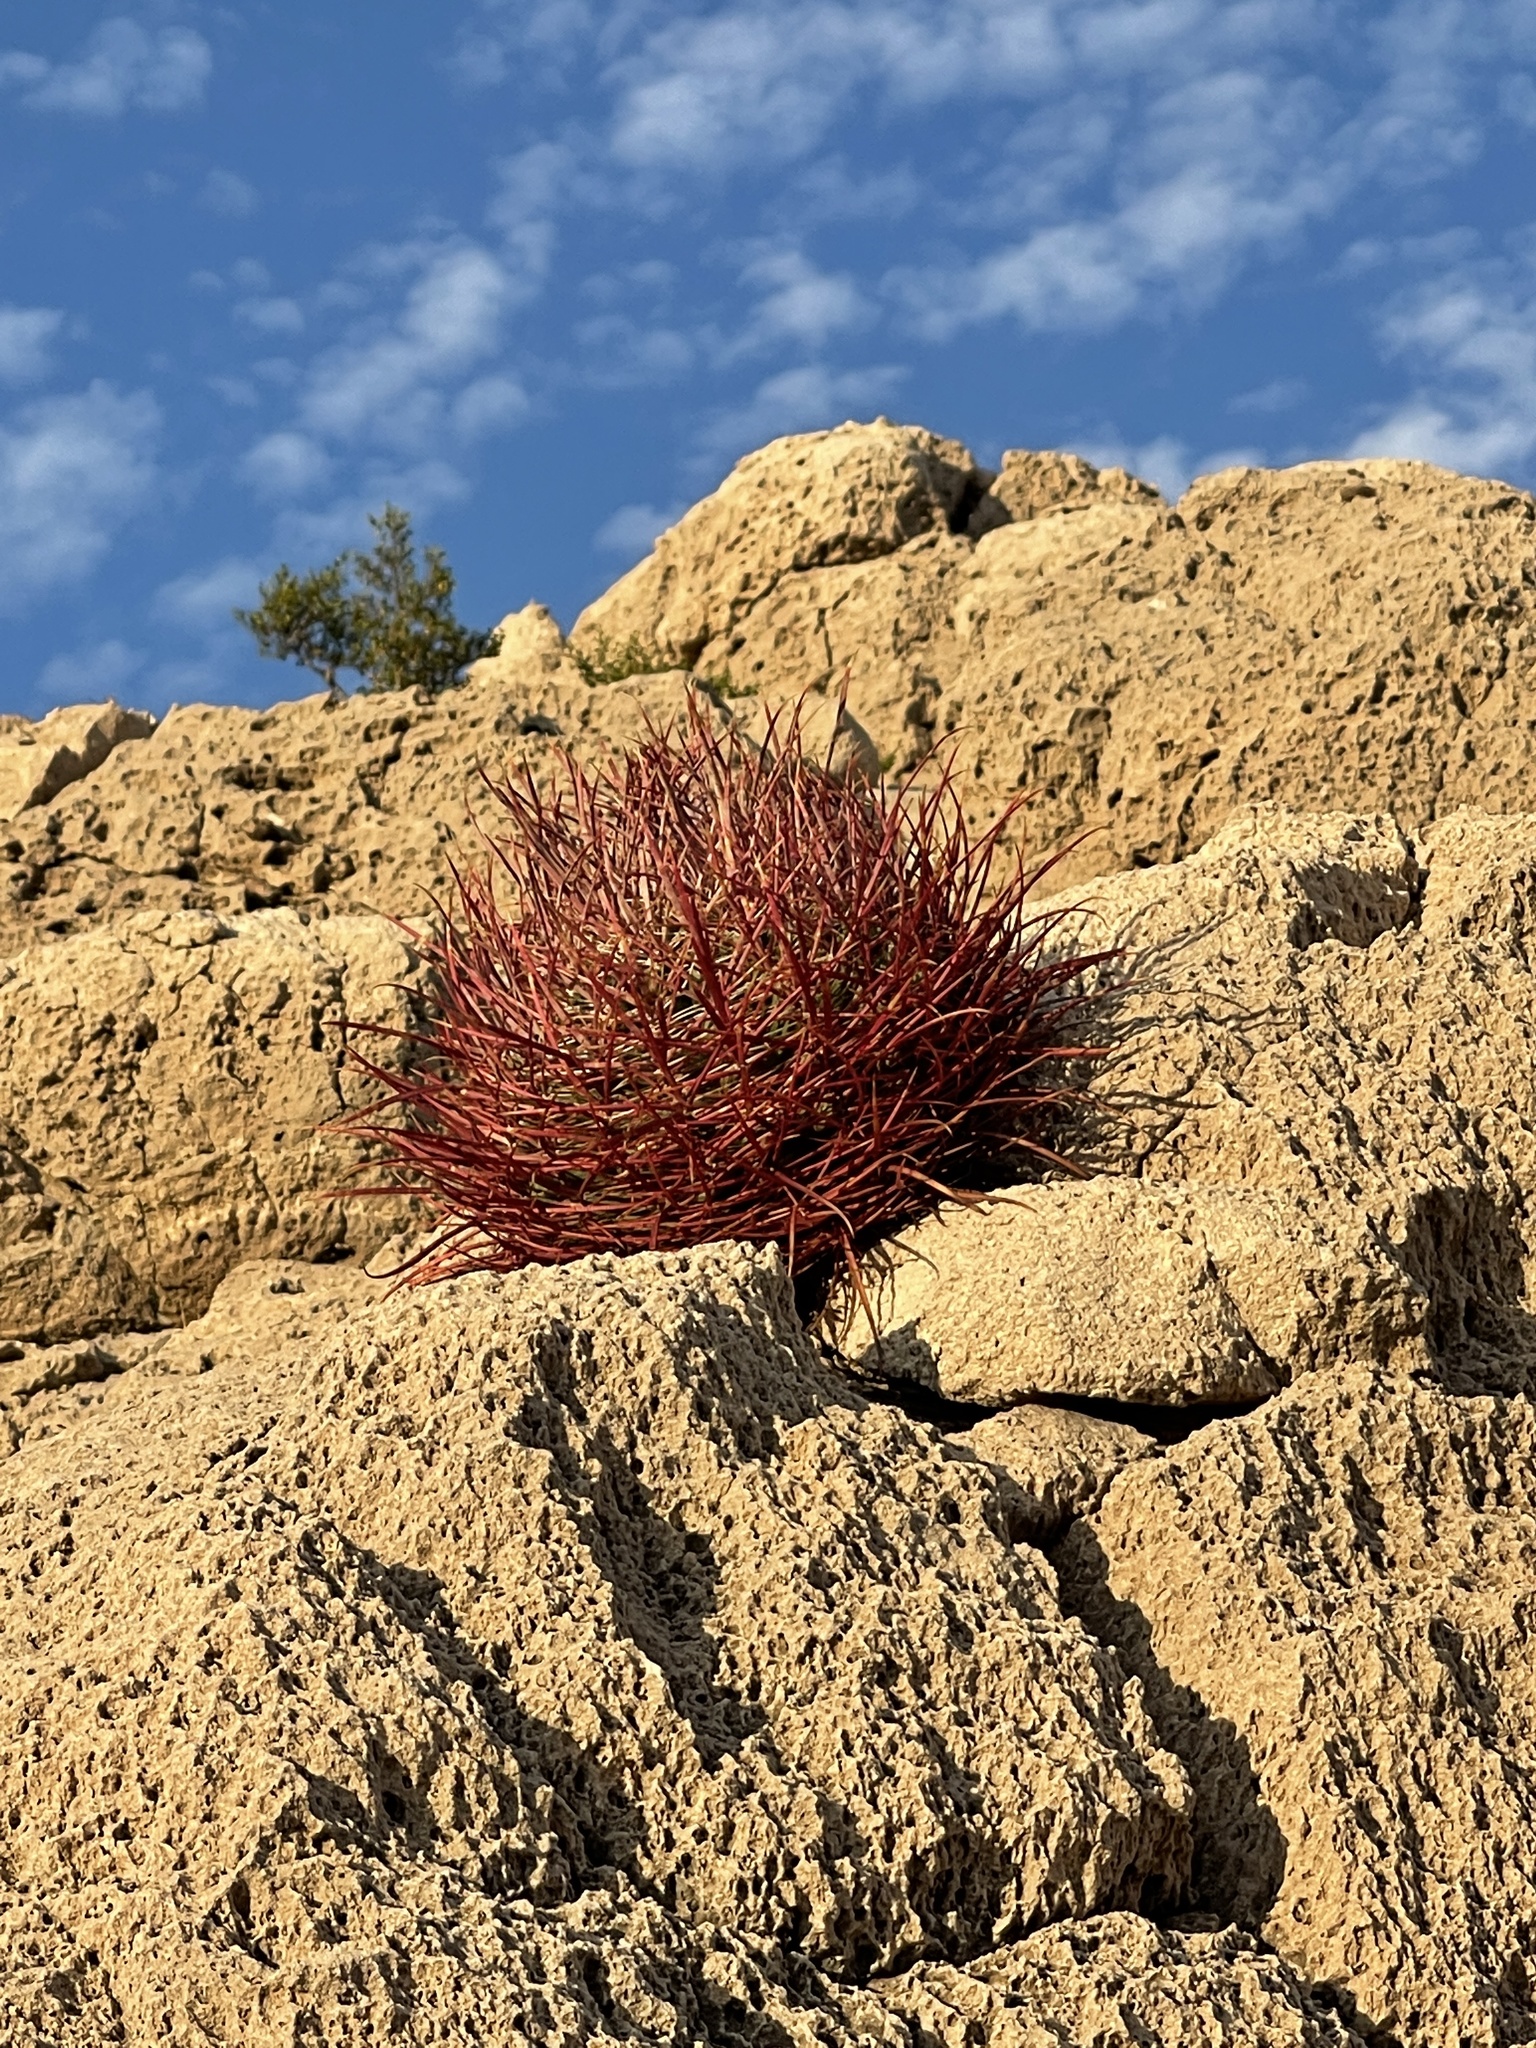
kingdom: Plantae
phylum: Tracheophyta
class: Magnoliopsida
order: Caryophyllales
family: Cactaceae
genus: Ferocactus
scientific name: Ferocactus cylindraceus
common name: California barrel cactus
